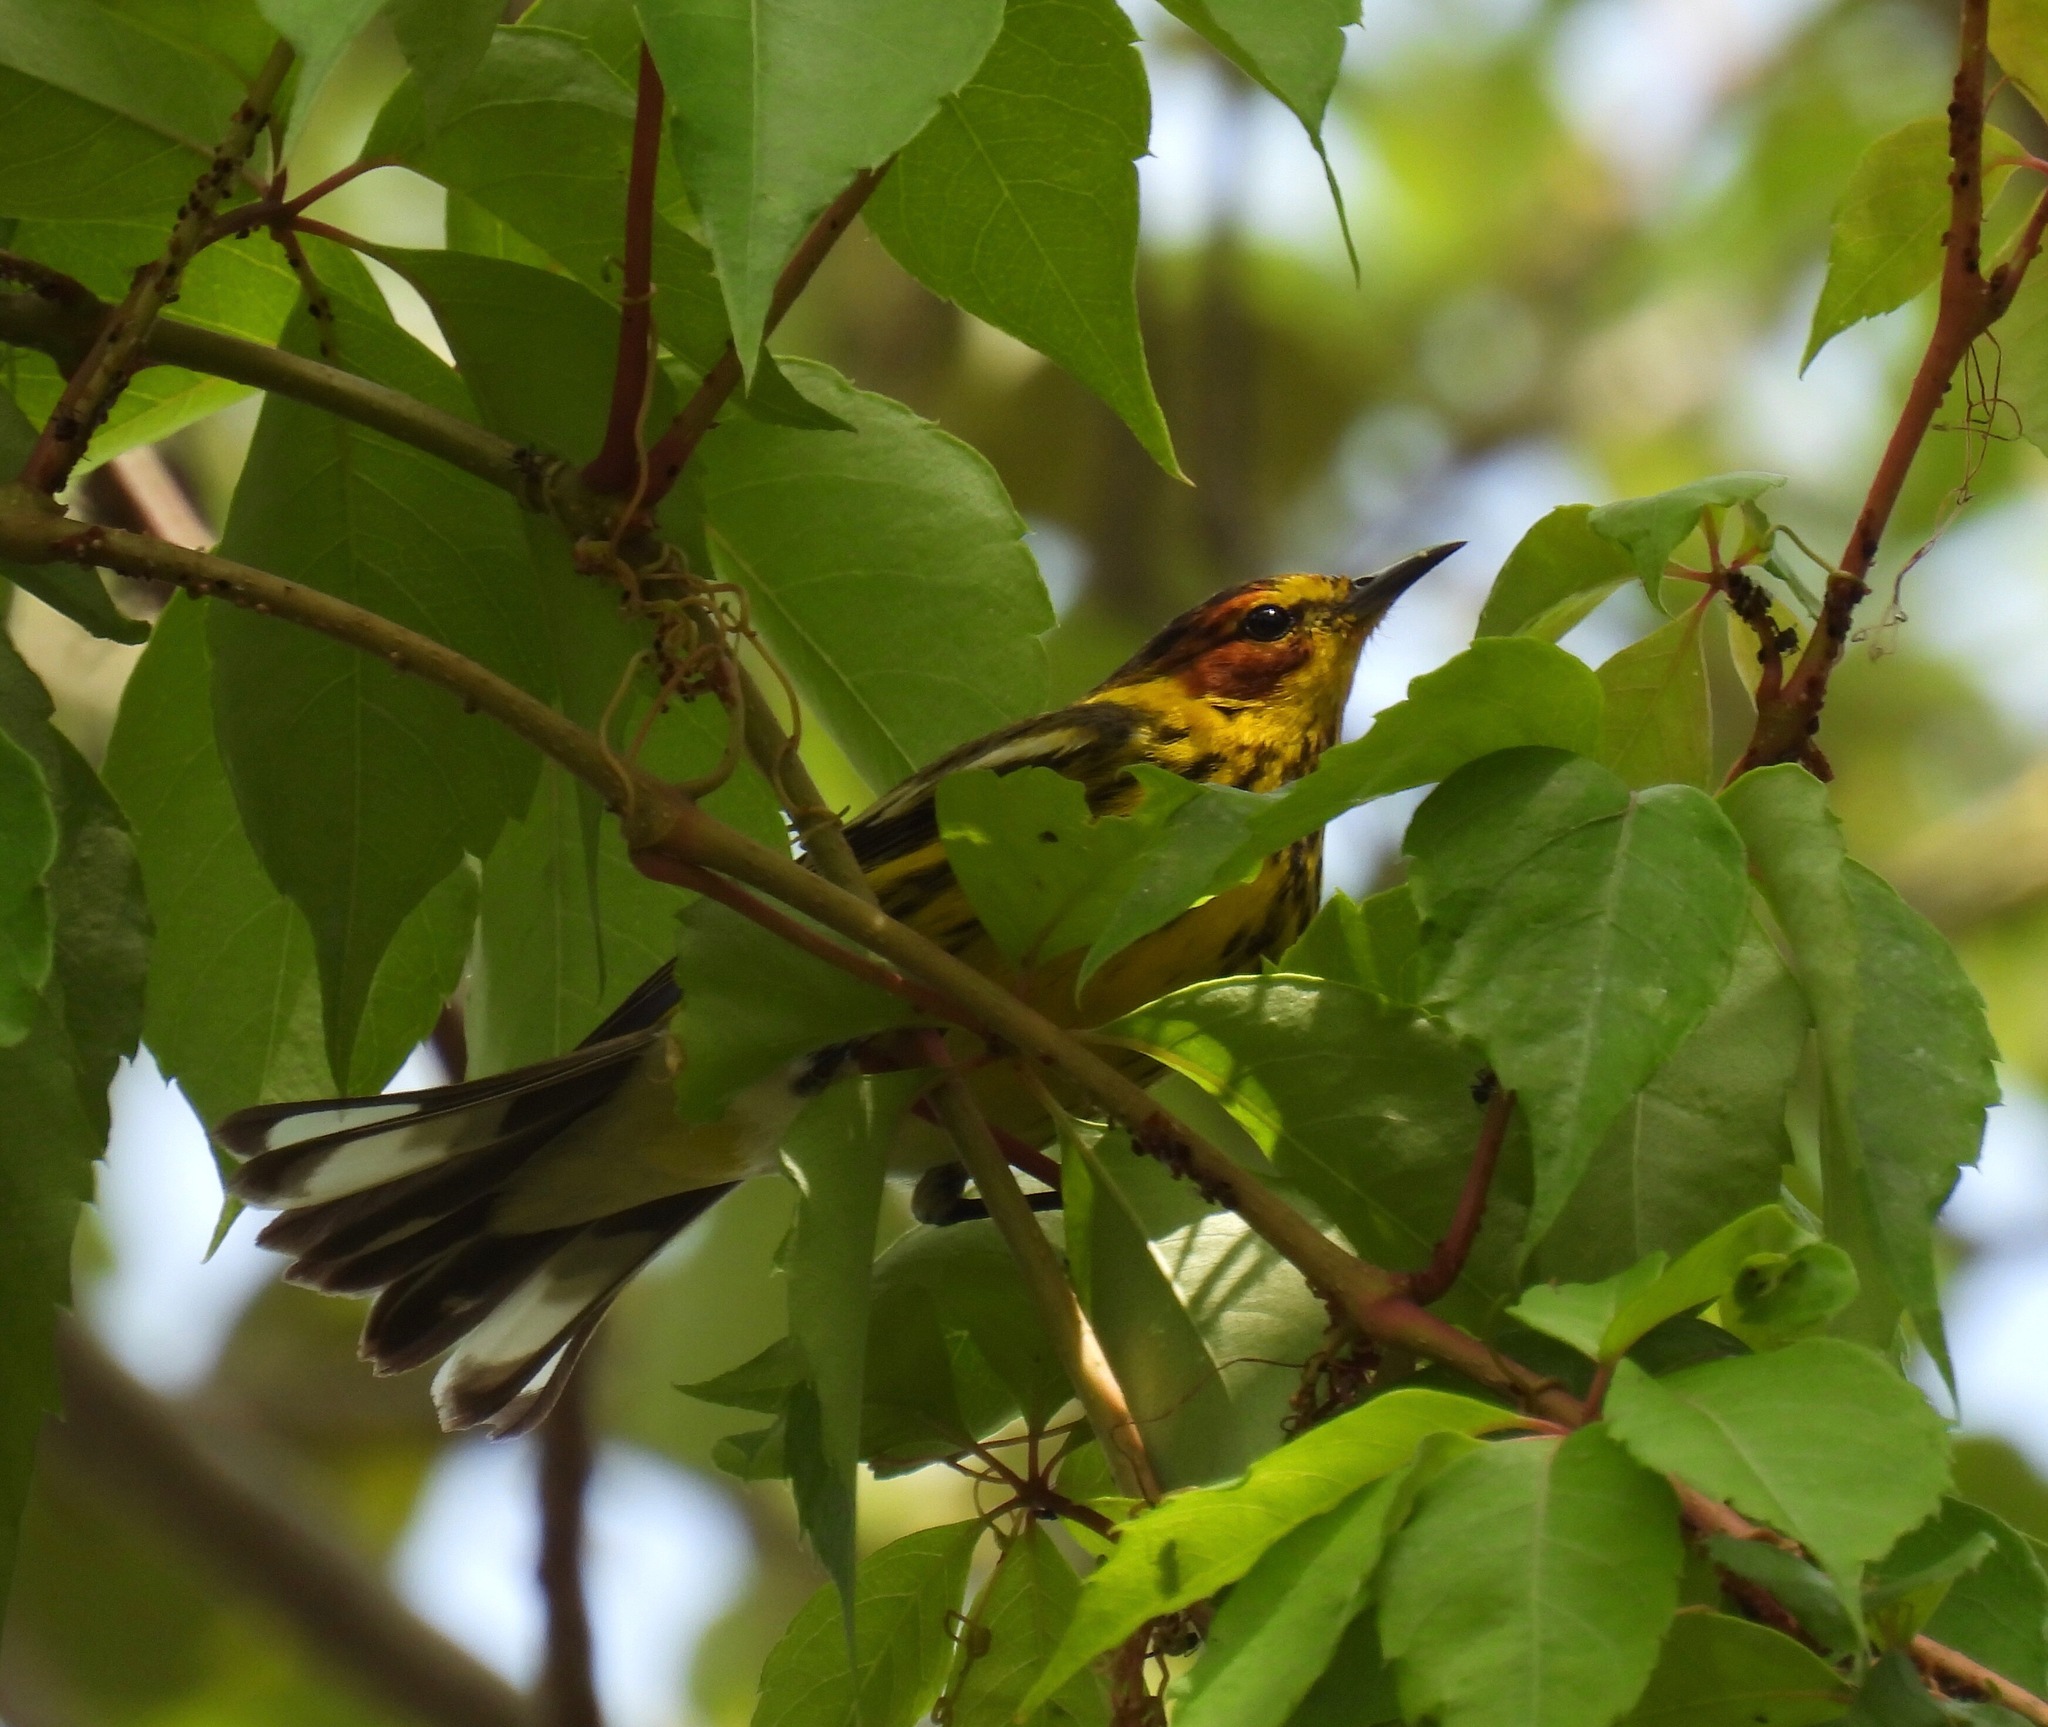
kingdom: Animalia
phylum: Chordata
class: Aves
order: Passeriformes
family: Parulidae
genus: Setophaga
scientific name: Setophaga tigrina
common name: Cape may warbler
